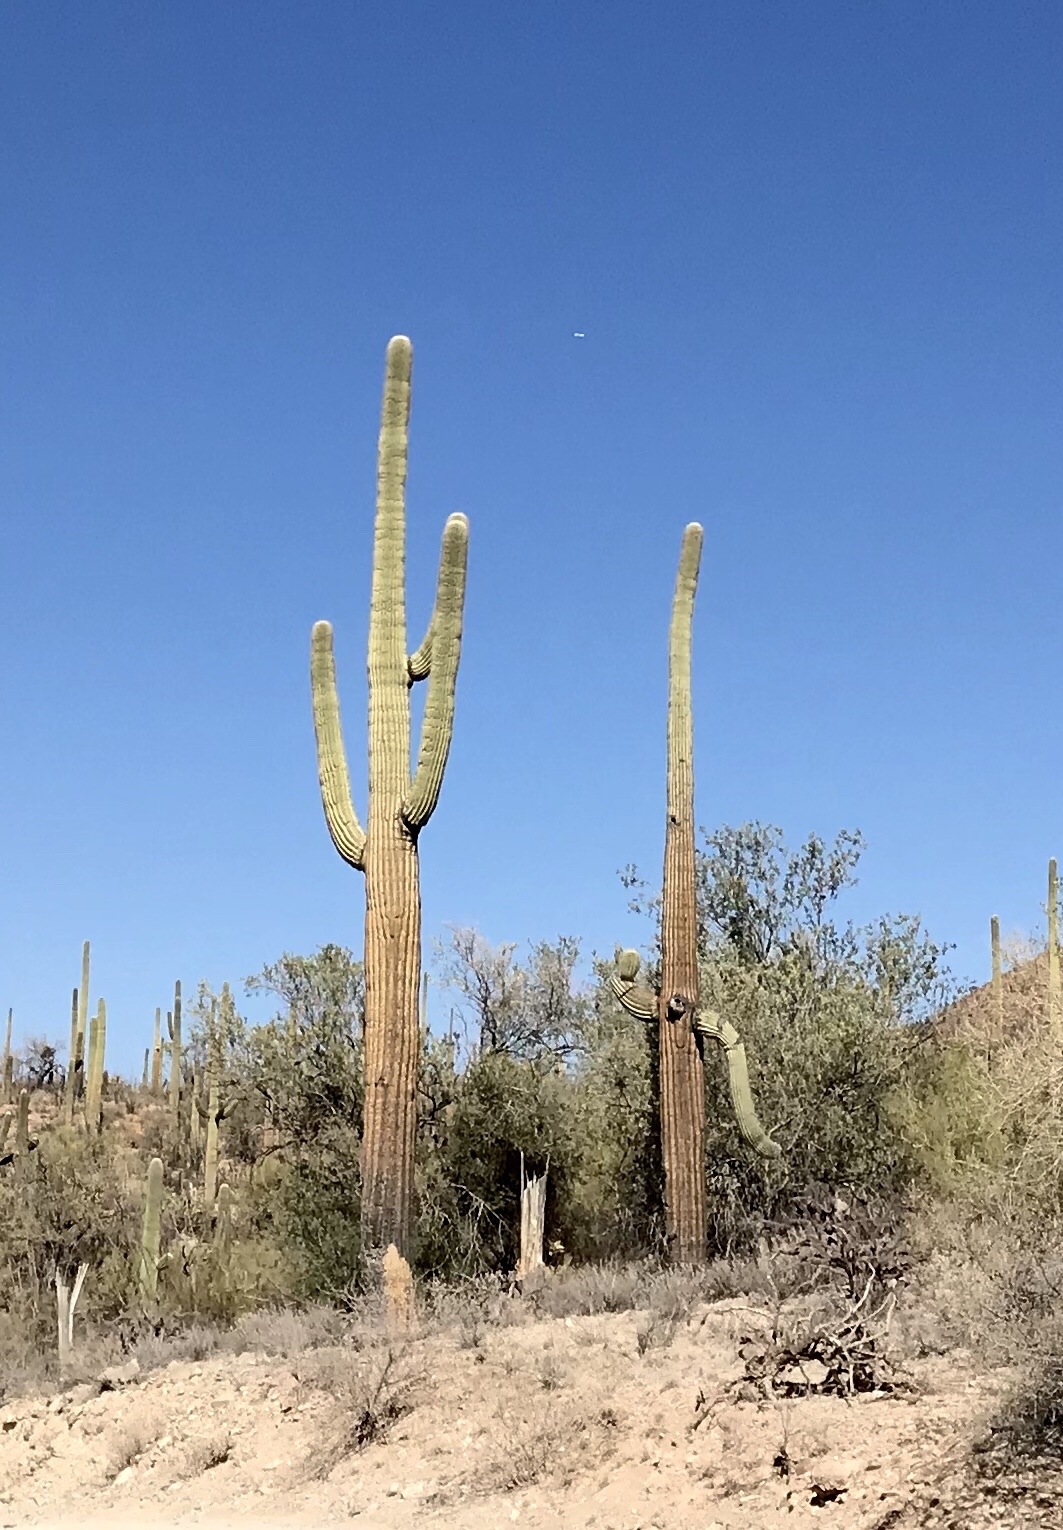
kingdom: Plantae
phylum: Tracheophyta
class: Magnoliopsida
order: Caryophyllales
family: Cactaceae
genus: Carnegiea
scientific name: Carnegiea gigantea
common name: Saguaro
